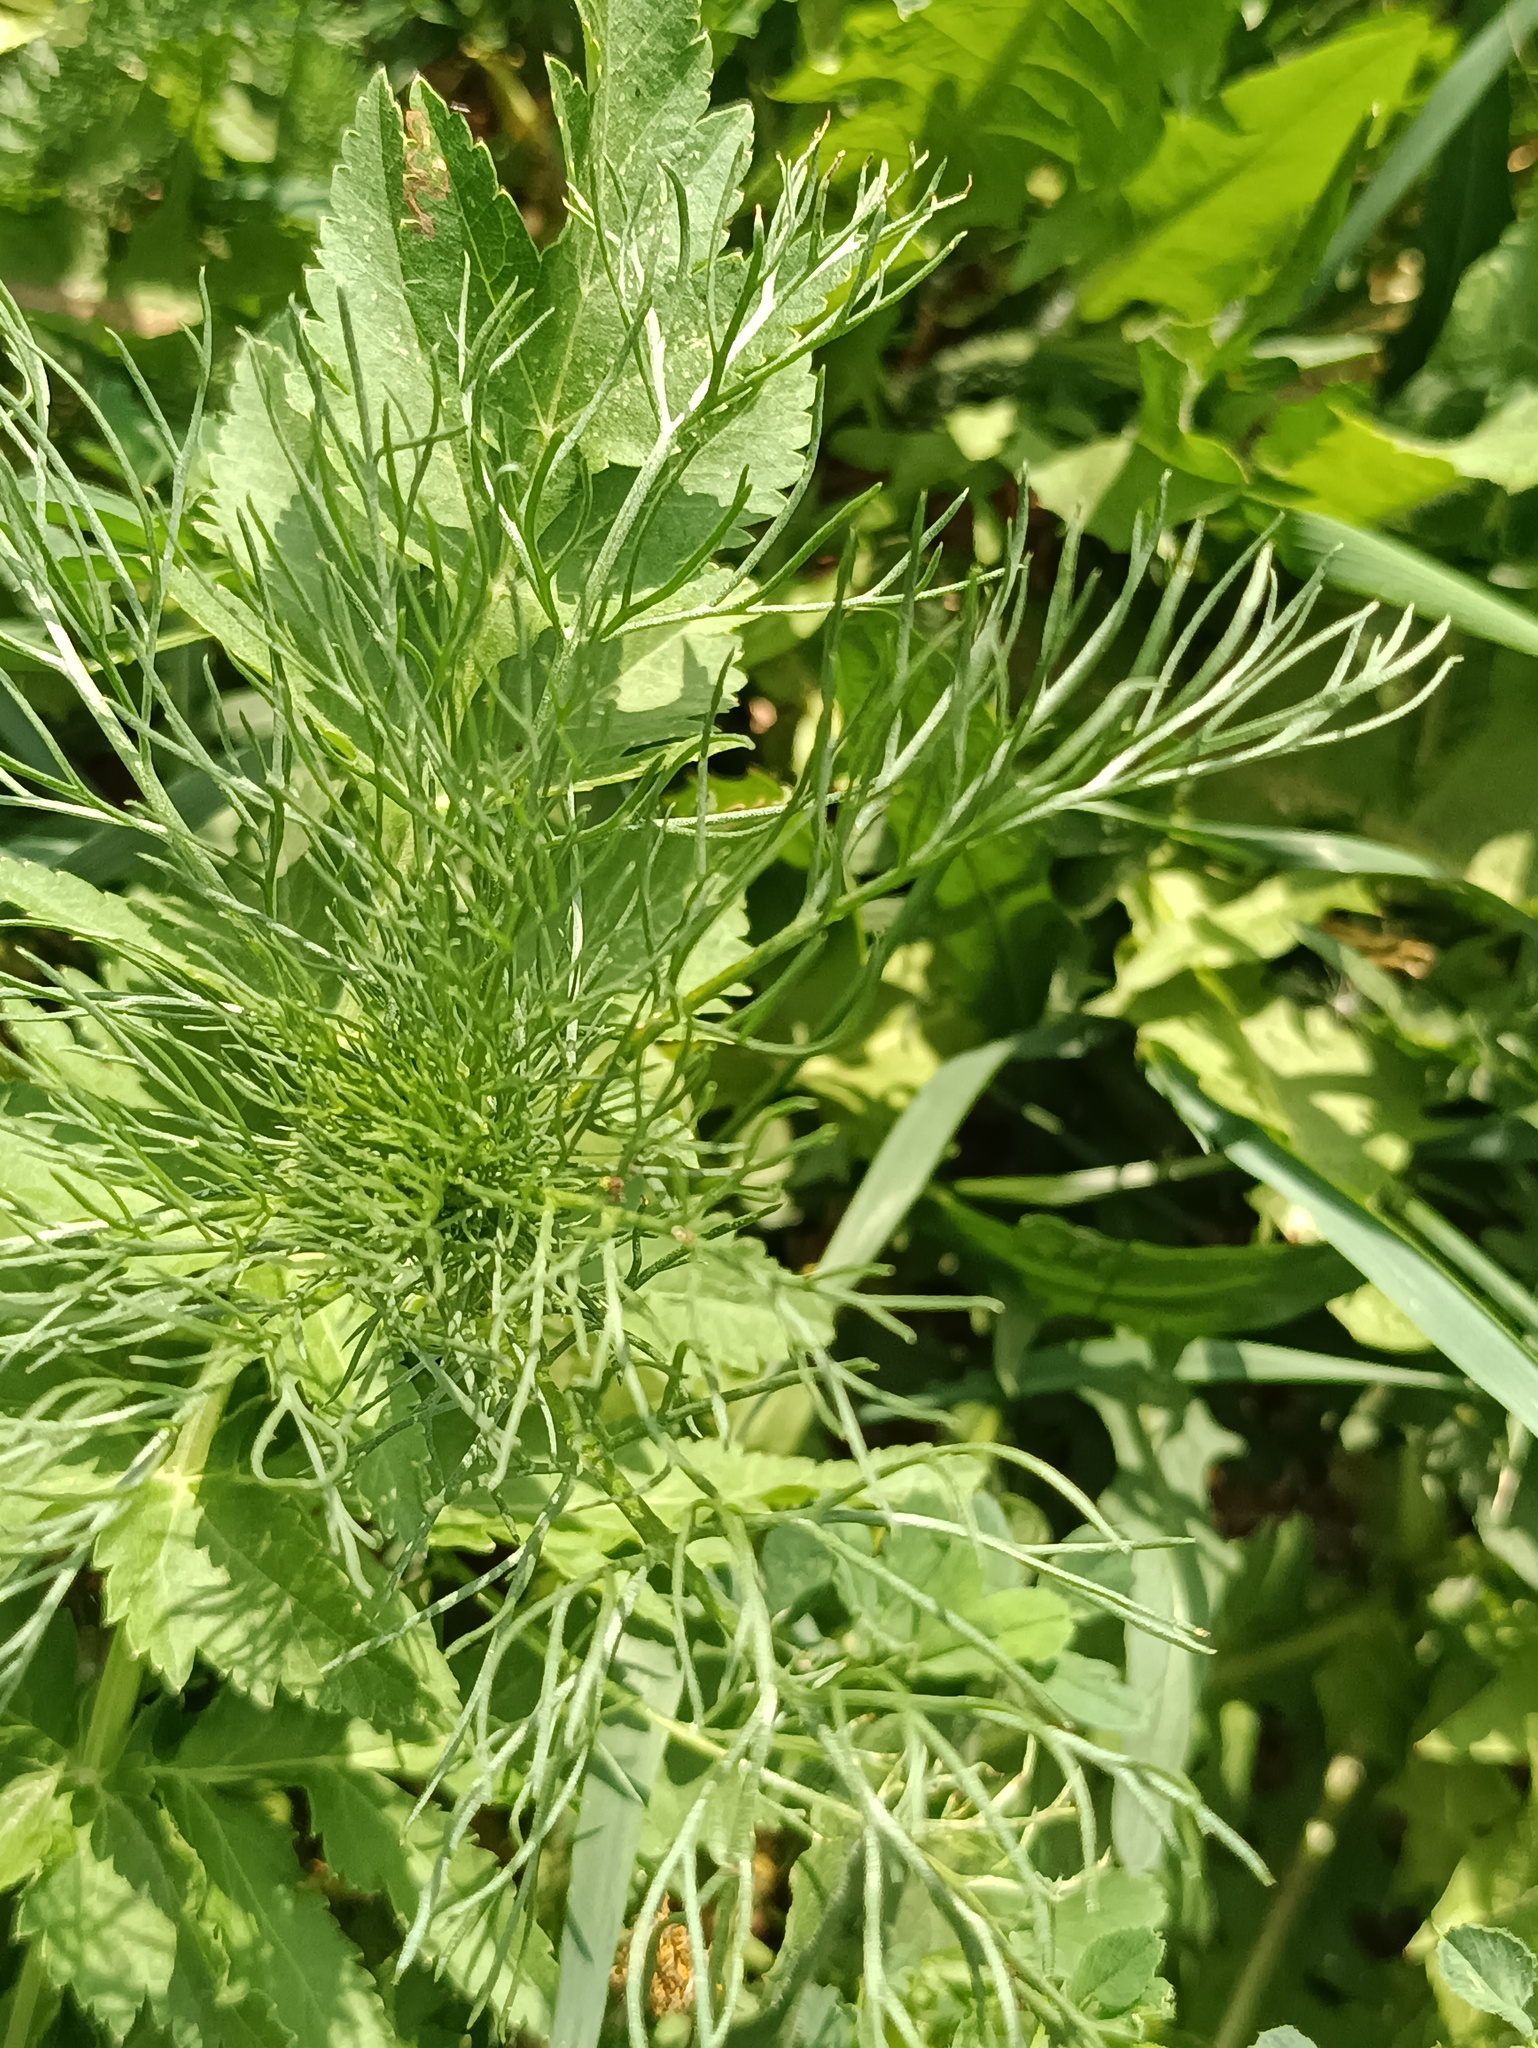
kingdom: Plantae
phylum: Tracheophyta
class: Magnoliopsida
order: Asterales
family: Asteraceae
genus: Tripleurospermum
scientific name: Tripleurospermum inodorum
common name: Scentless mayweed
